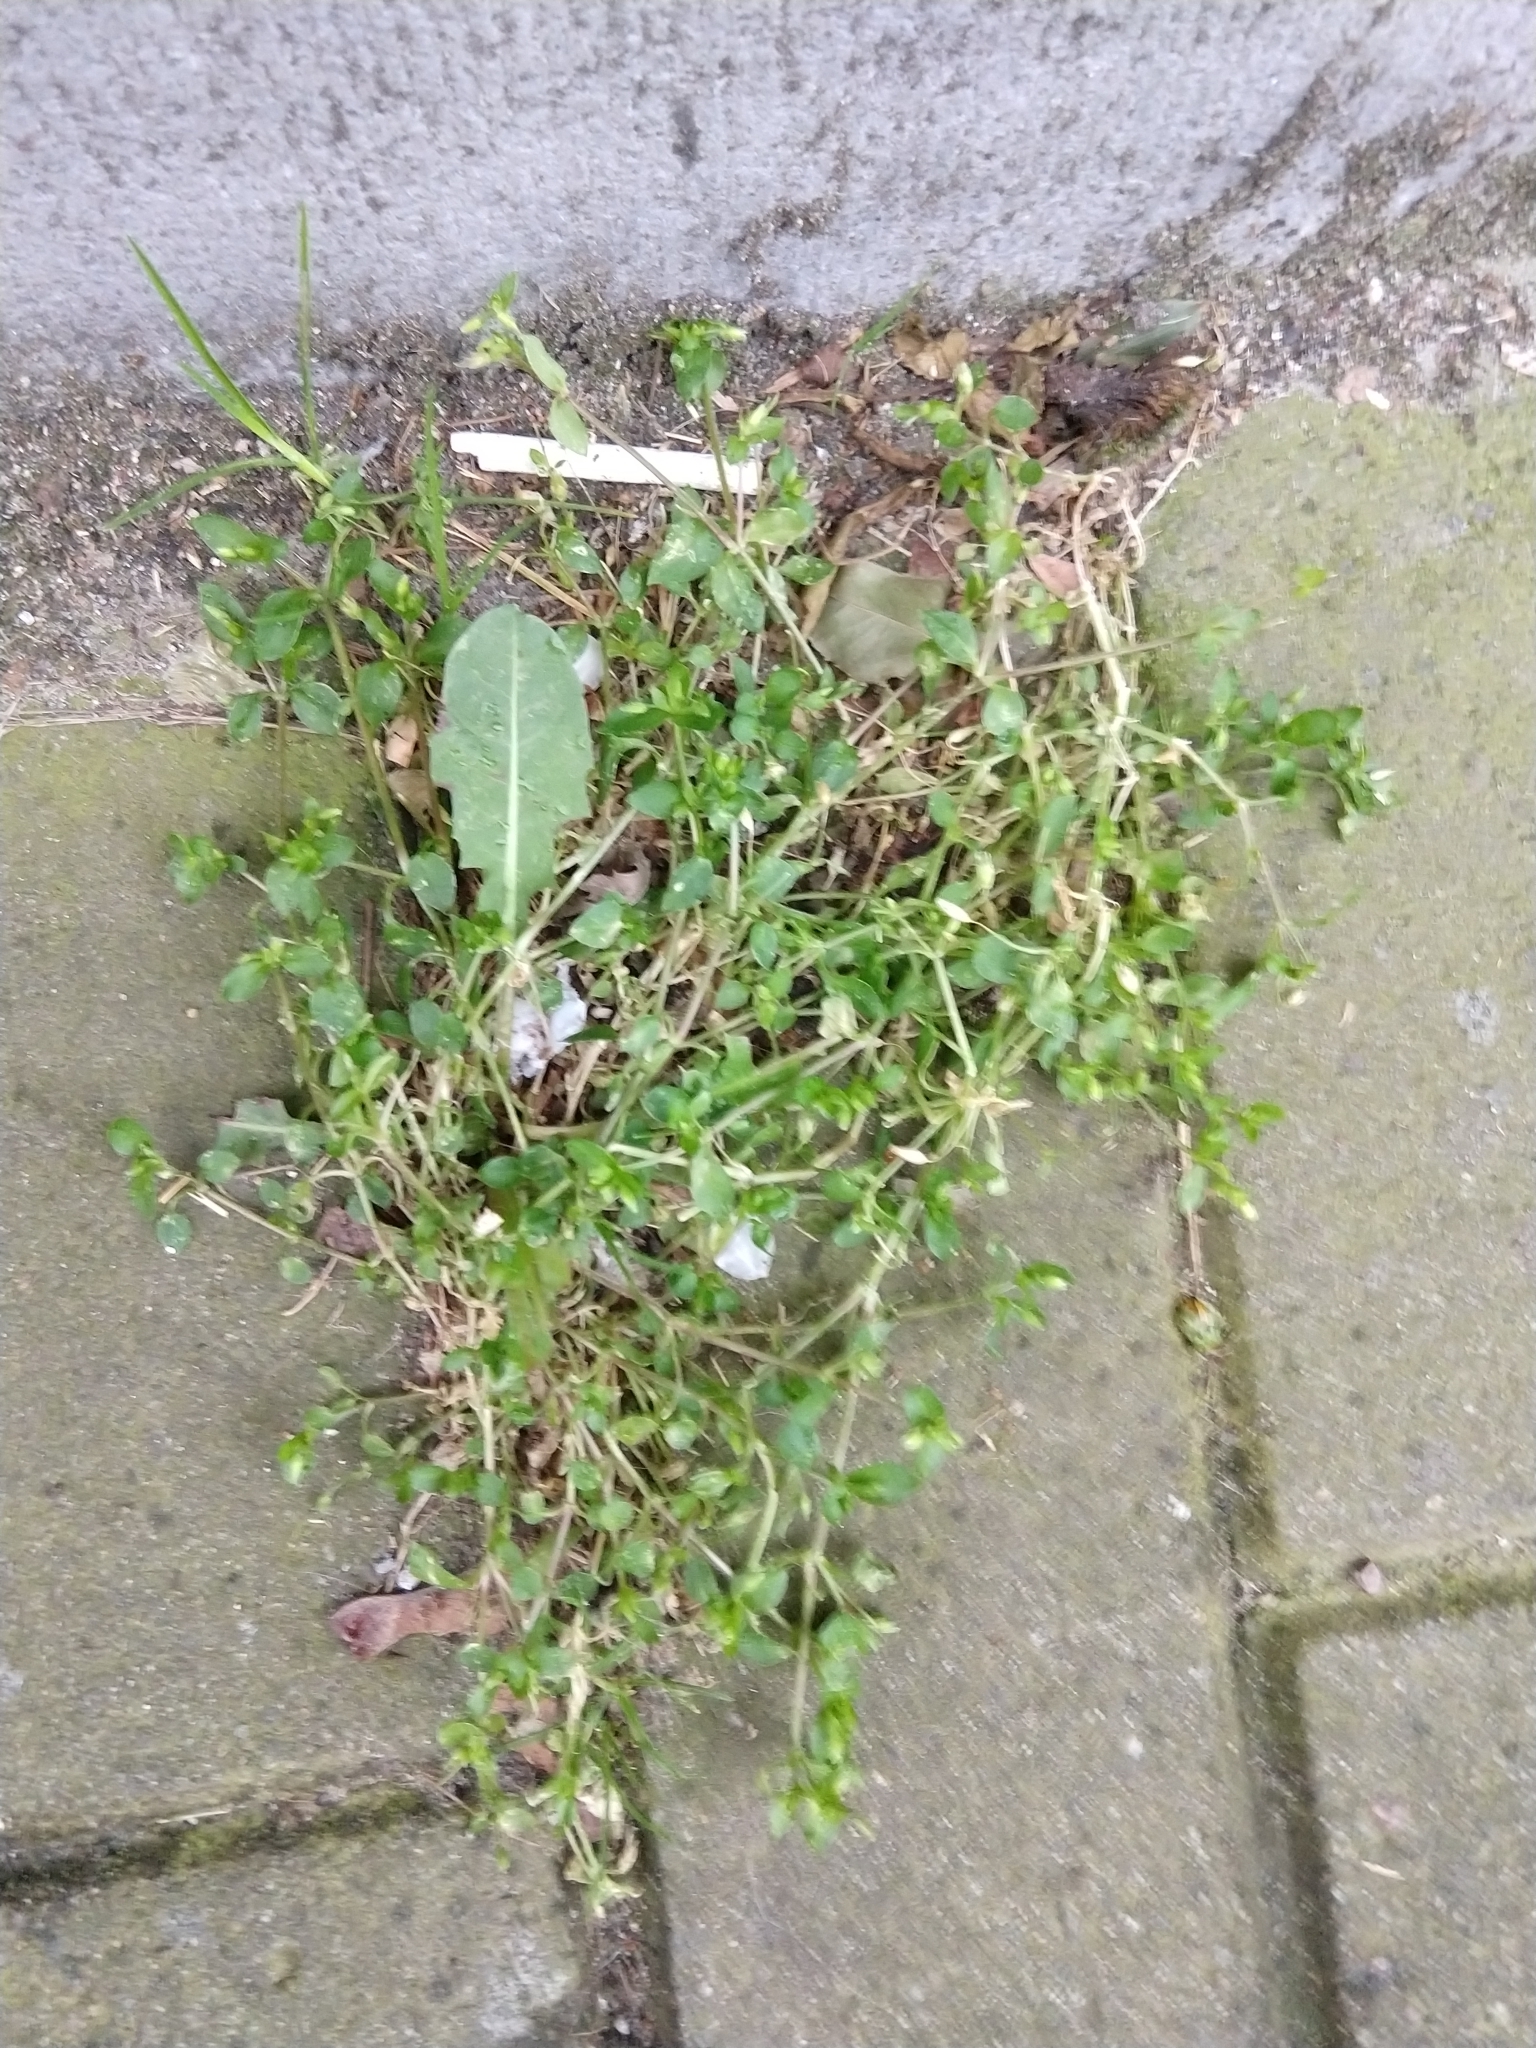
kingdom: Plantae
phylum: Tracheophyta
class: Magnoliopsida
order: Caryophyllales
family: Caryophyllaceae
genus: Stellaria
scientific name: Stellaria media
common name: Common chickweed
